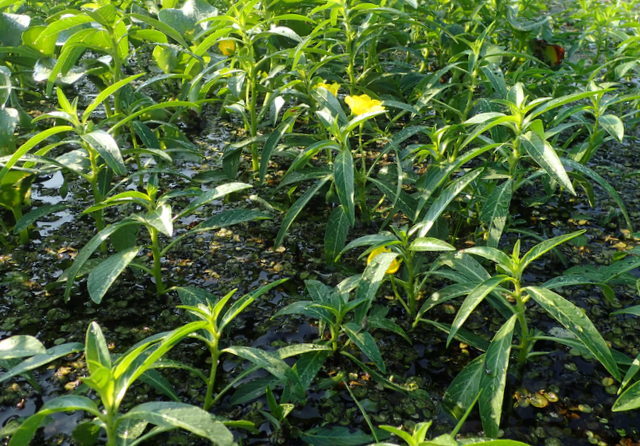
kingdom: Plantae
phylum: Tracheophyta
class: Magnoliopsida
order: Myrtales
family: Onagraceae
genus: Ludwigia
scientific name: Ludwigia peploides
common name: Floating primrose-willow
